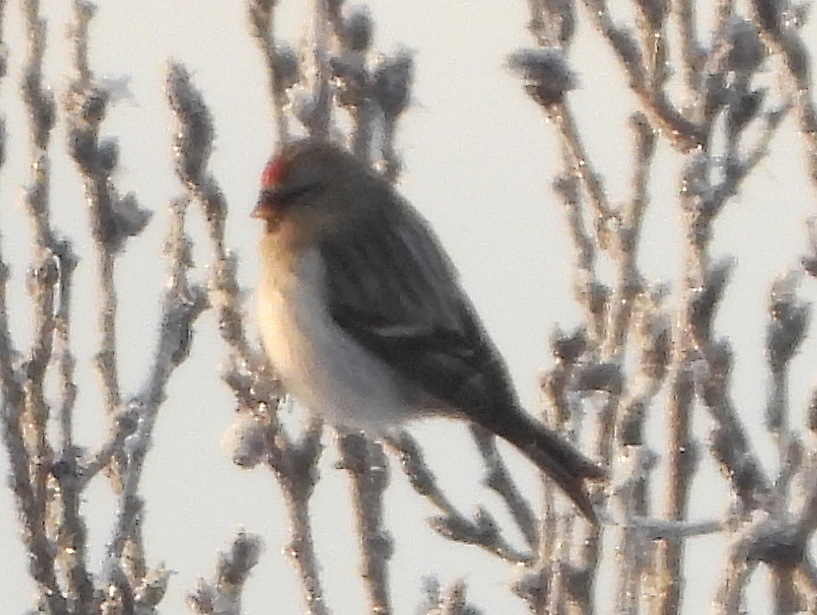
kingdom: Animalia
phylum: Chordata
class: Aves
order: Passeriformes
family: Fringillidae
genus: Acanthis
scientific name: Acanthis hornemanni
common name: Arctic redpoll
